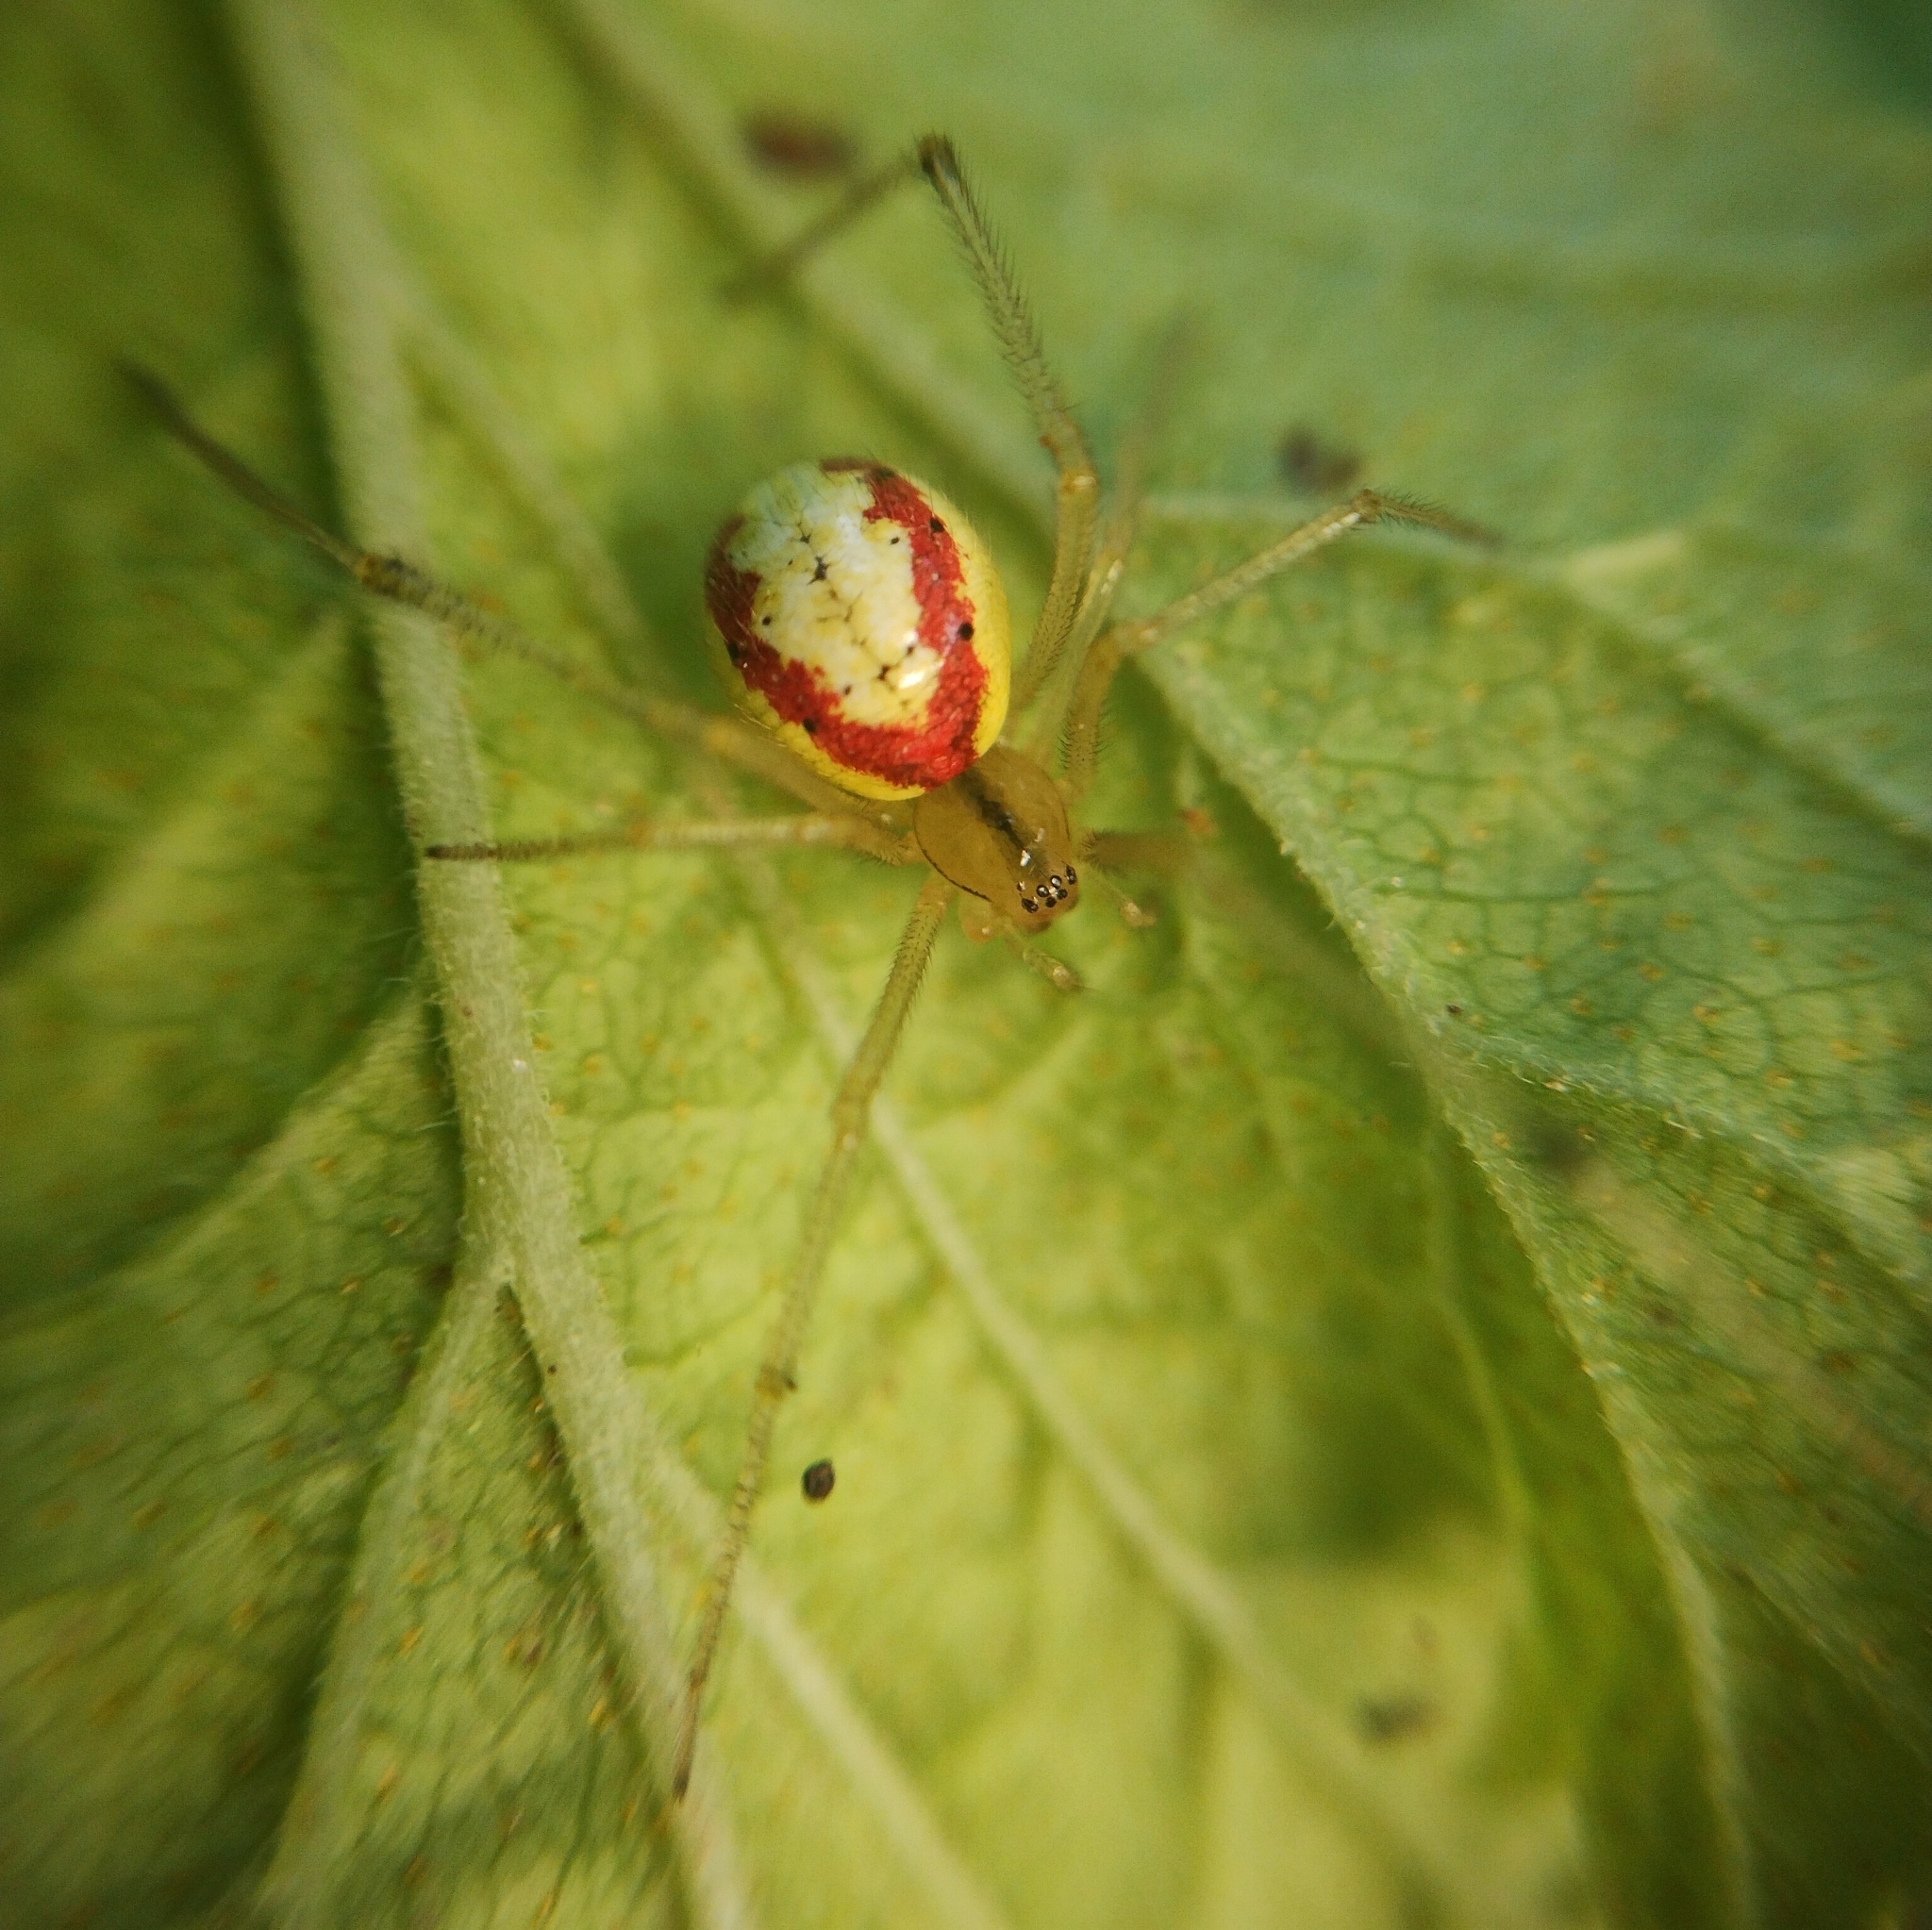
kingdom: Animalia
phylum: Arthropoda
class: Arachnida
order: Araneae
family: Theridiidae
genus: Enoplognatha
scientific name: Enoplognatha
